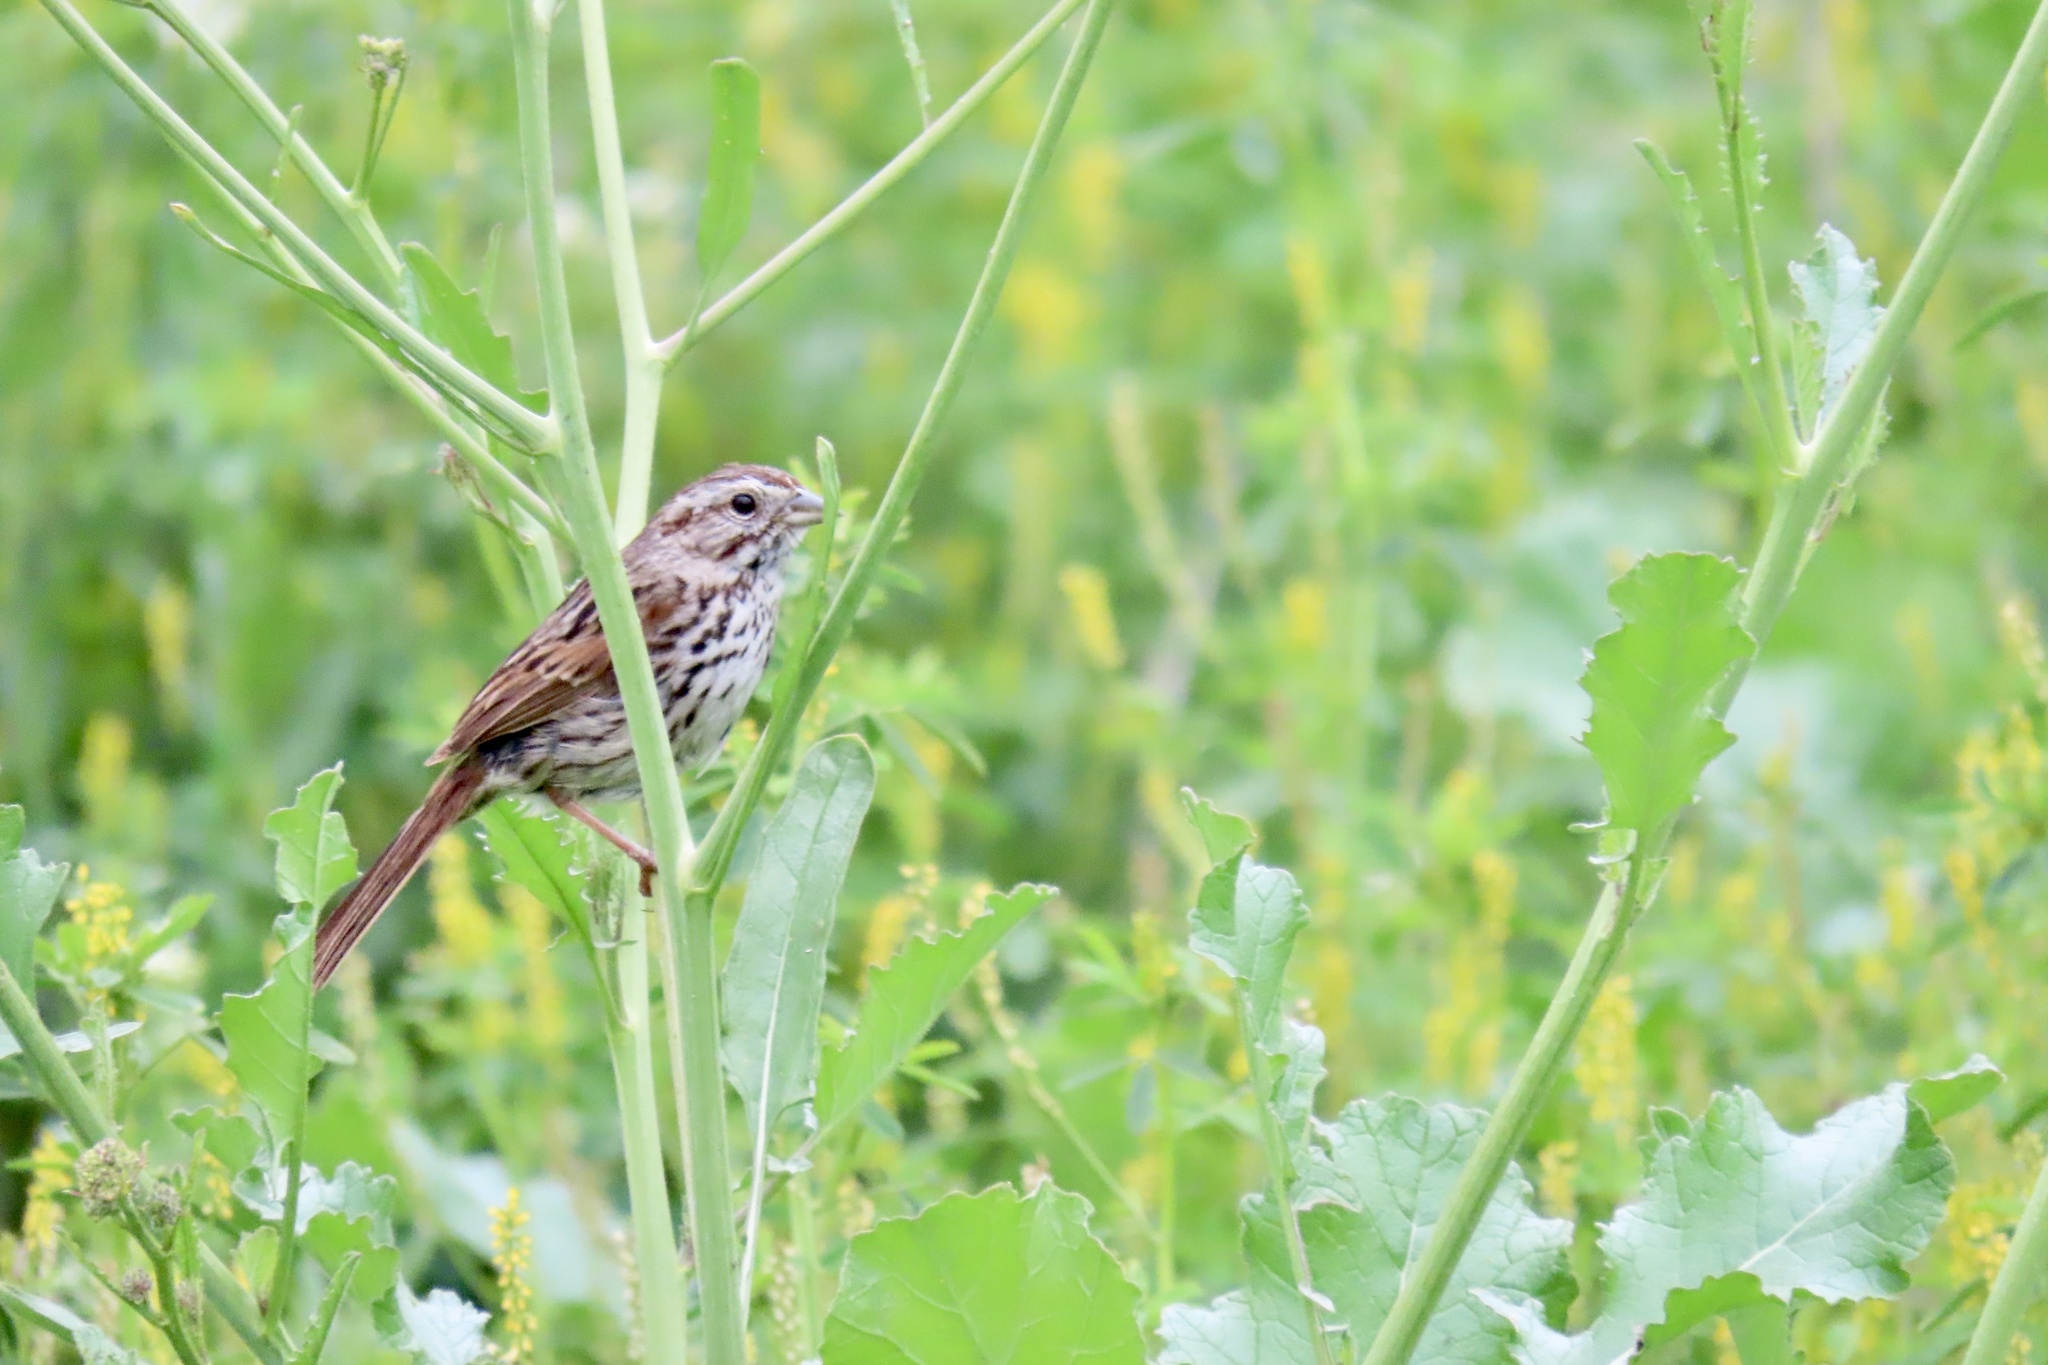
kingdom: Animalia
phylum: Chordata
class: Aves
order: Passeriformes
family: Passerellidae
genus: Melospiza
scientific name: Melospiza melodia
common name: Song sparrow
